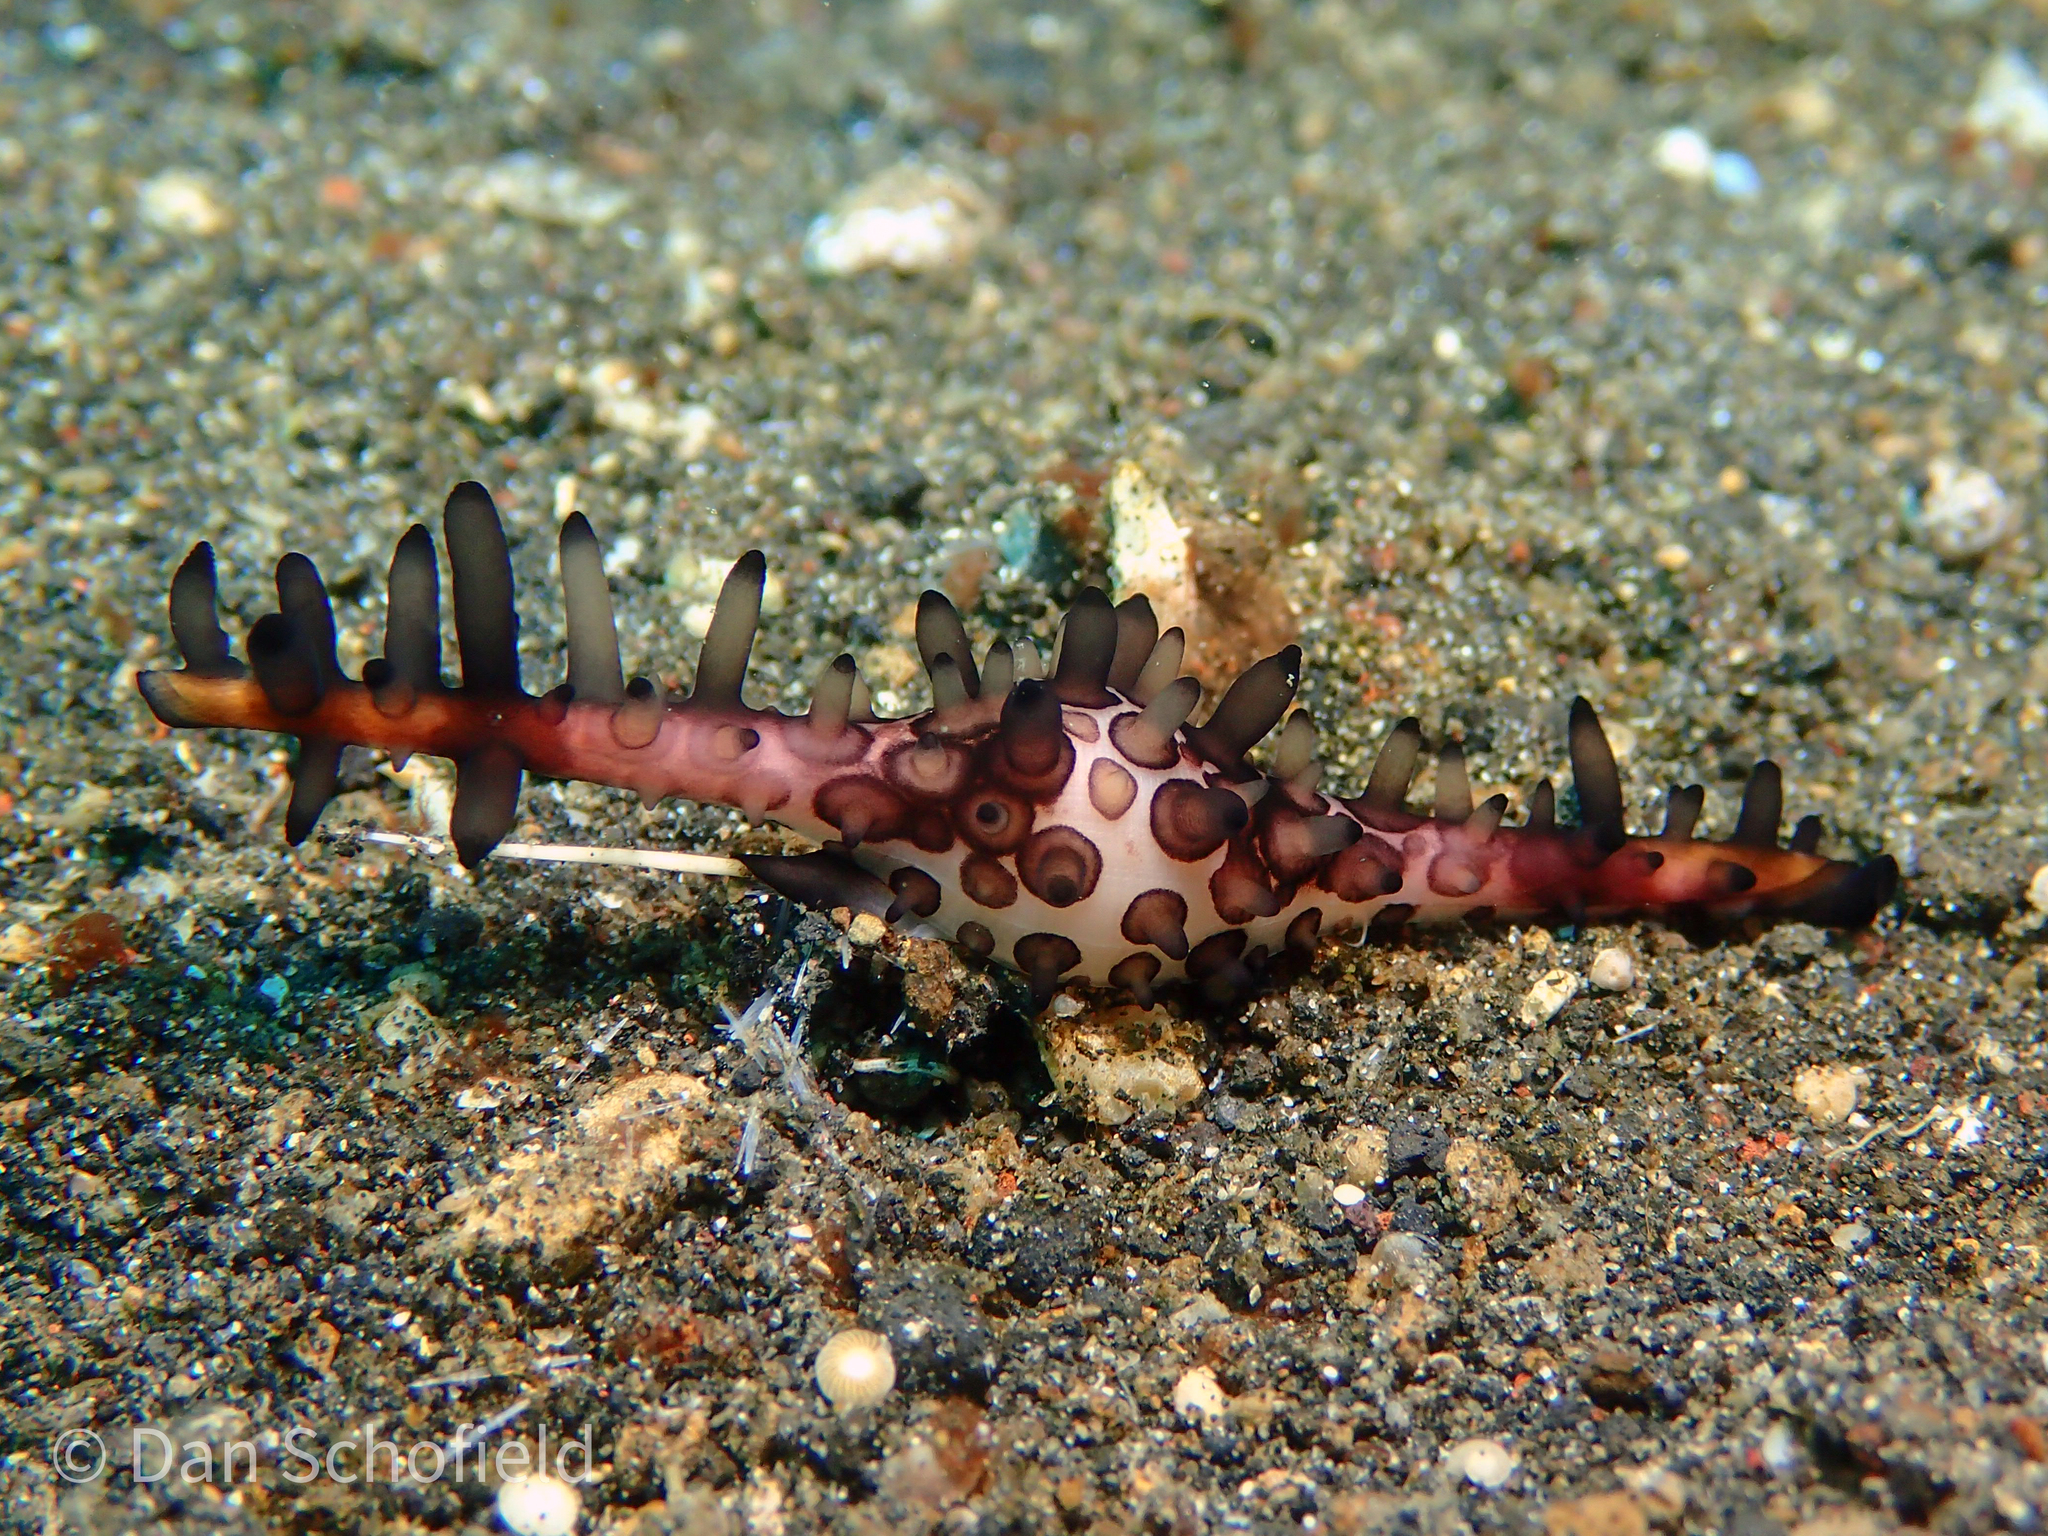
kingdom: Animalia
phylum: Mollusca
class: Gastropoda
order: Littorinimorpha
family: Ovulidae
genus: Volva
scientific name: Volva volva
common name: Egg spindle
